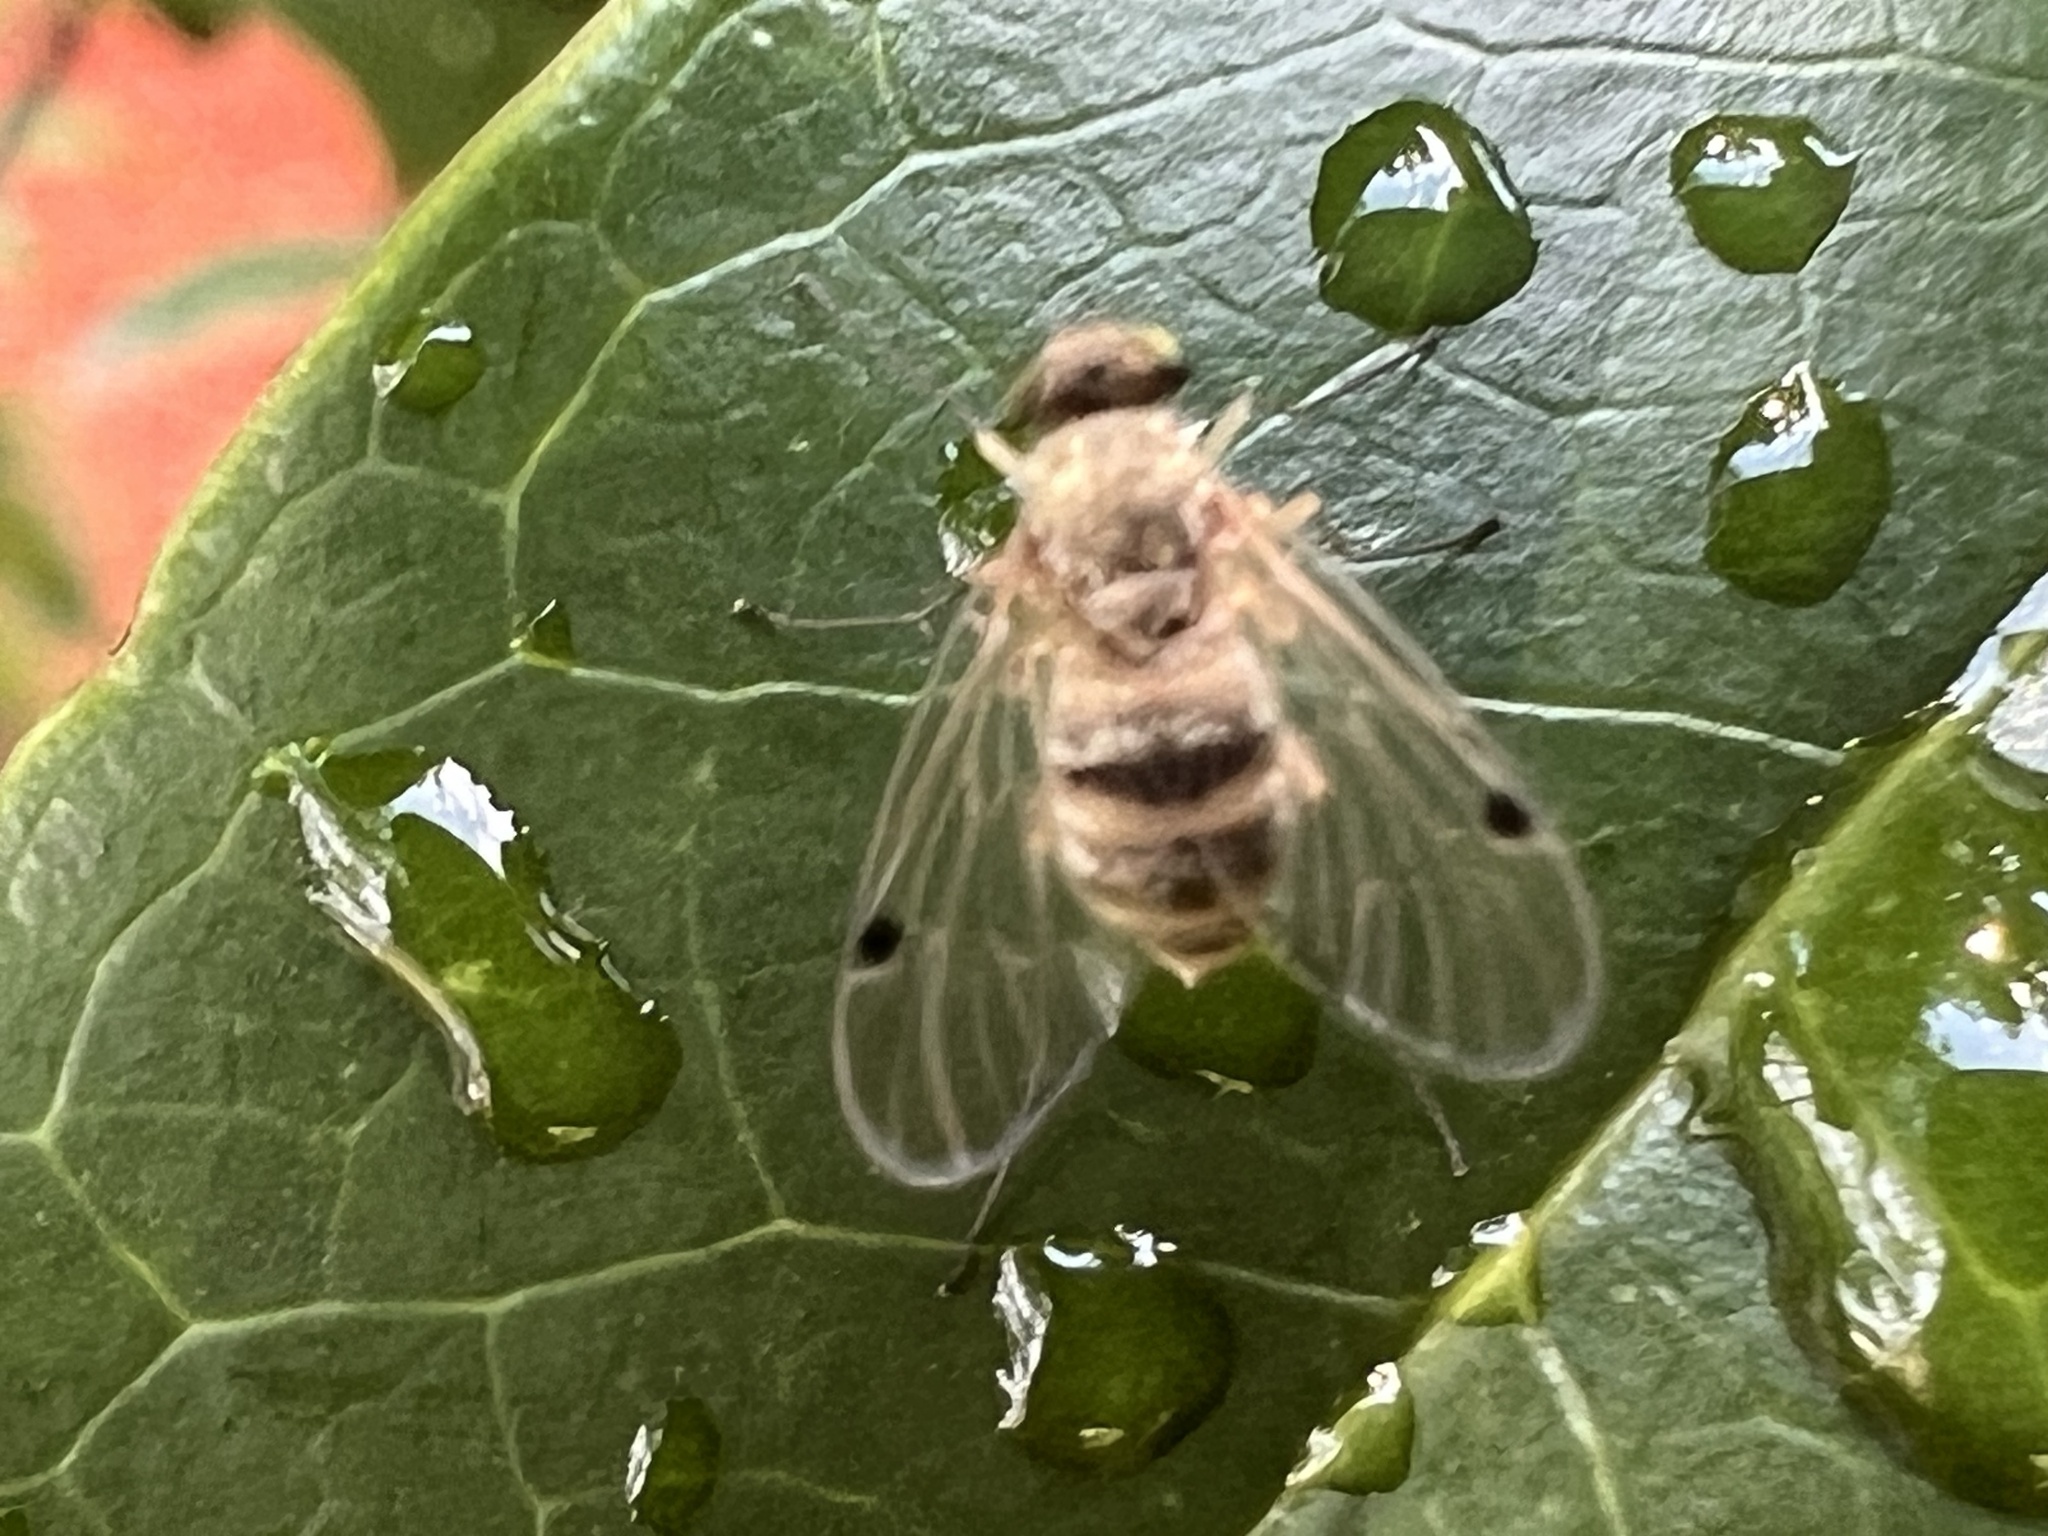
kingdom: Animalia
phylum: Arthropoda
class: Insecta
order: Diptera
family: Rhagionidae
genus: Chrysopilus
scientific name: Chrysopilus modestus
